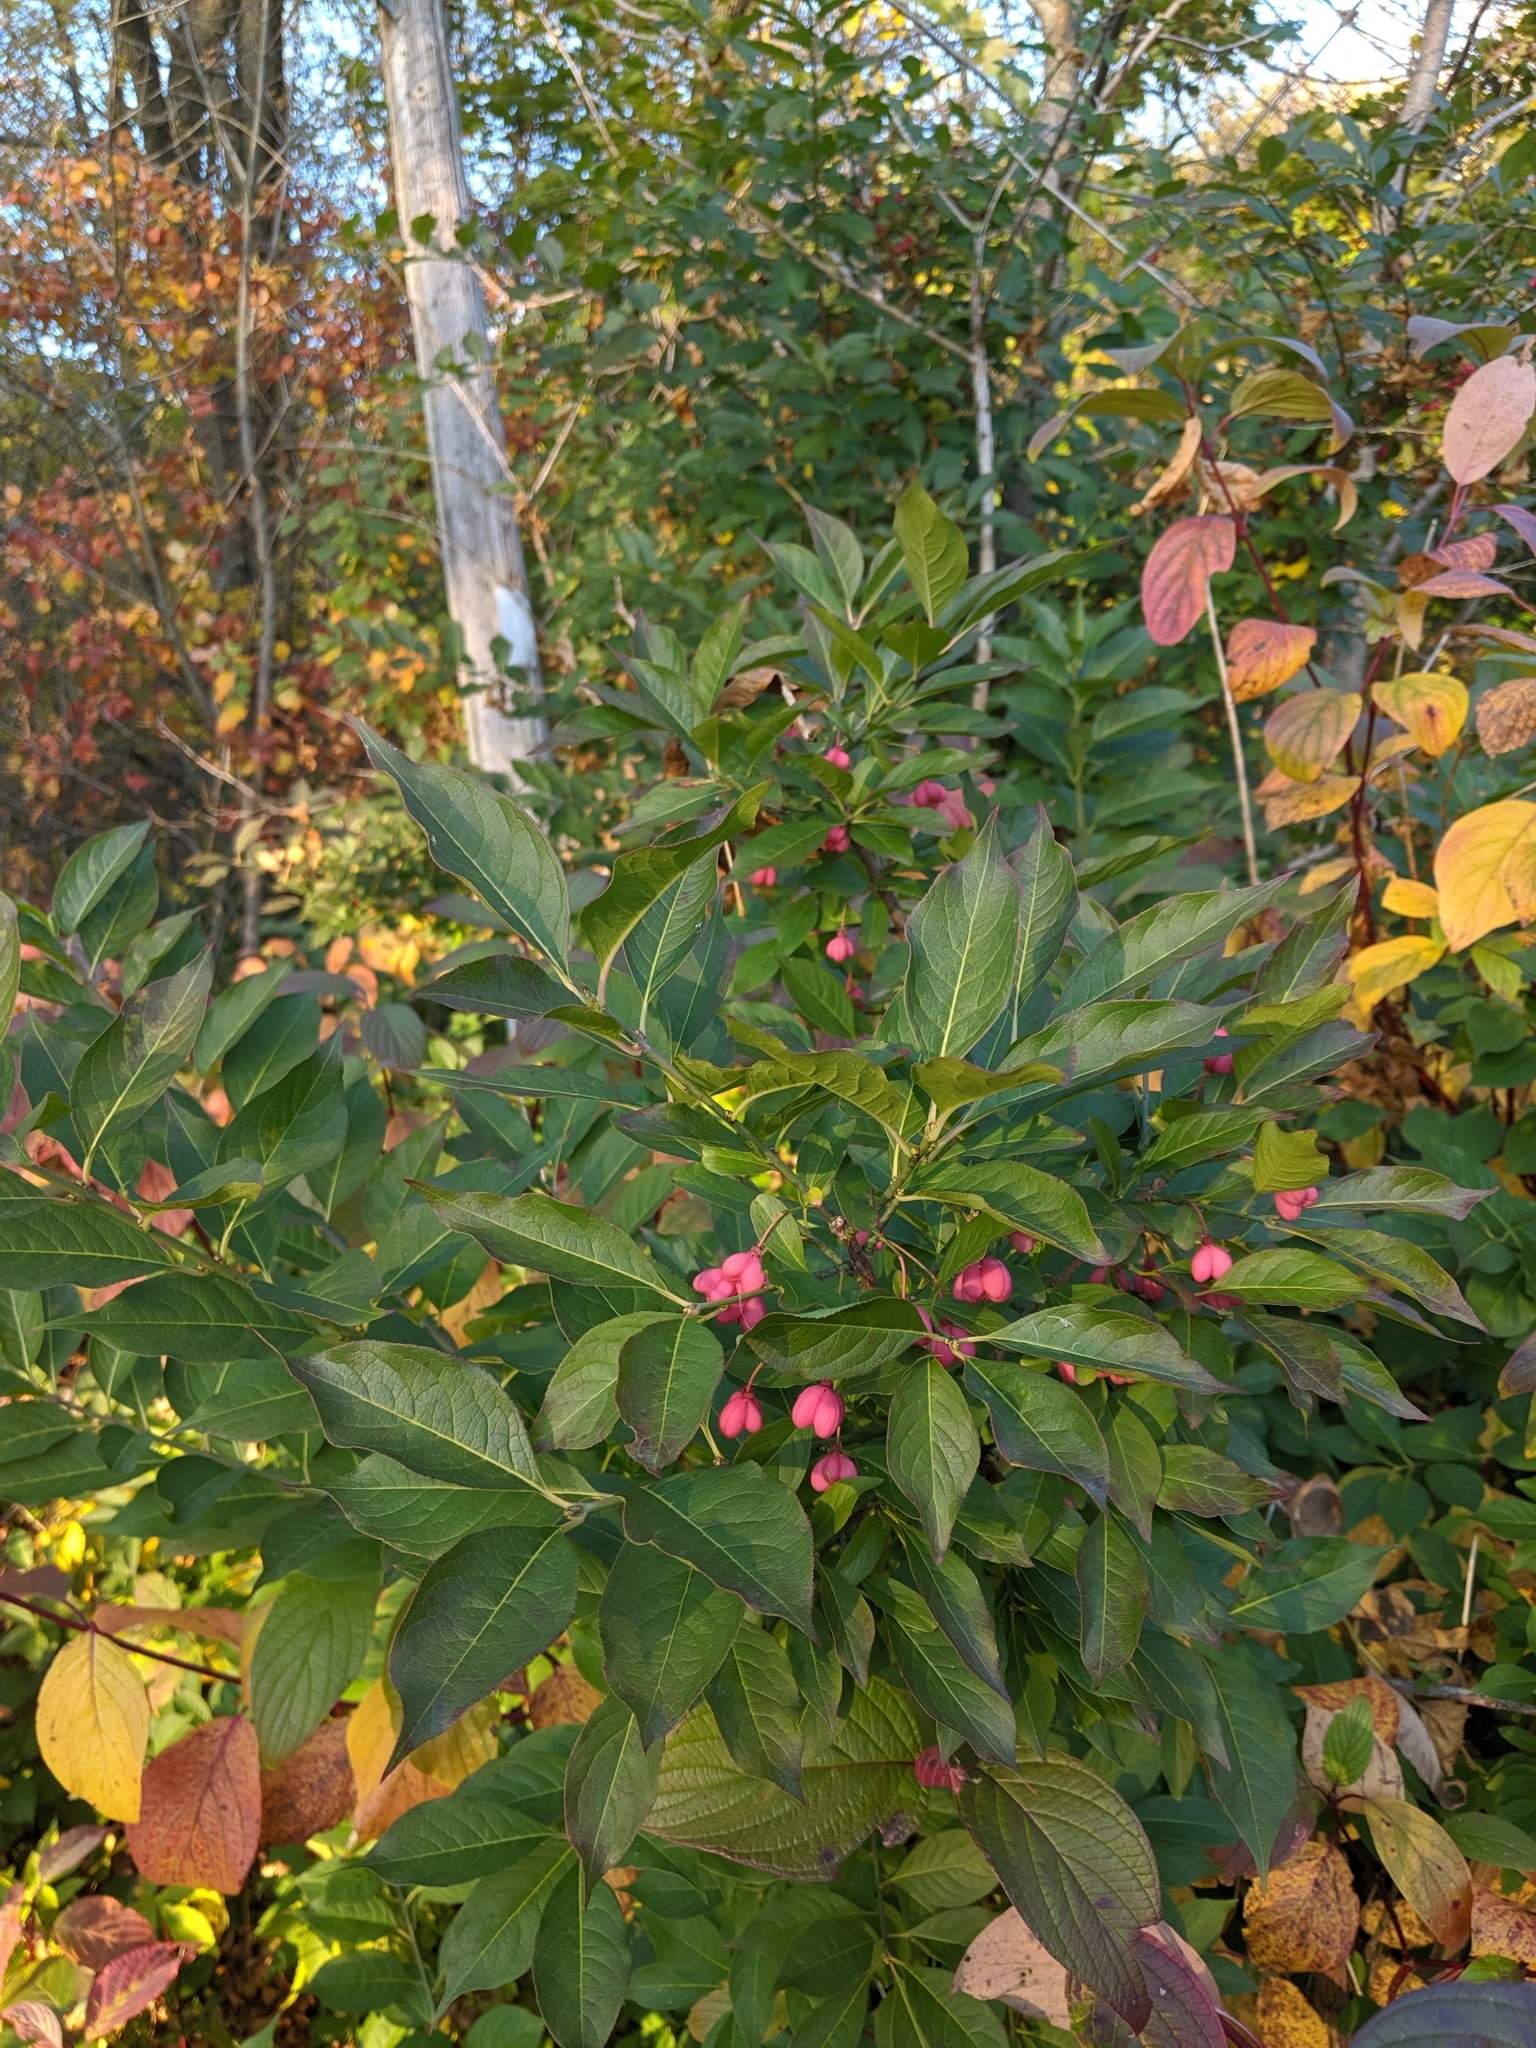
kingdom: Plantae
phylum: Tracheophyta
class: Magnoliopsida
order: Celastrales
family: Celastraceae
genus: Euonymus
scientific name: Euonymus europaeus
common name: Spindle
